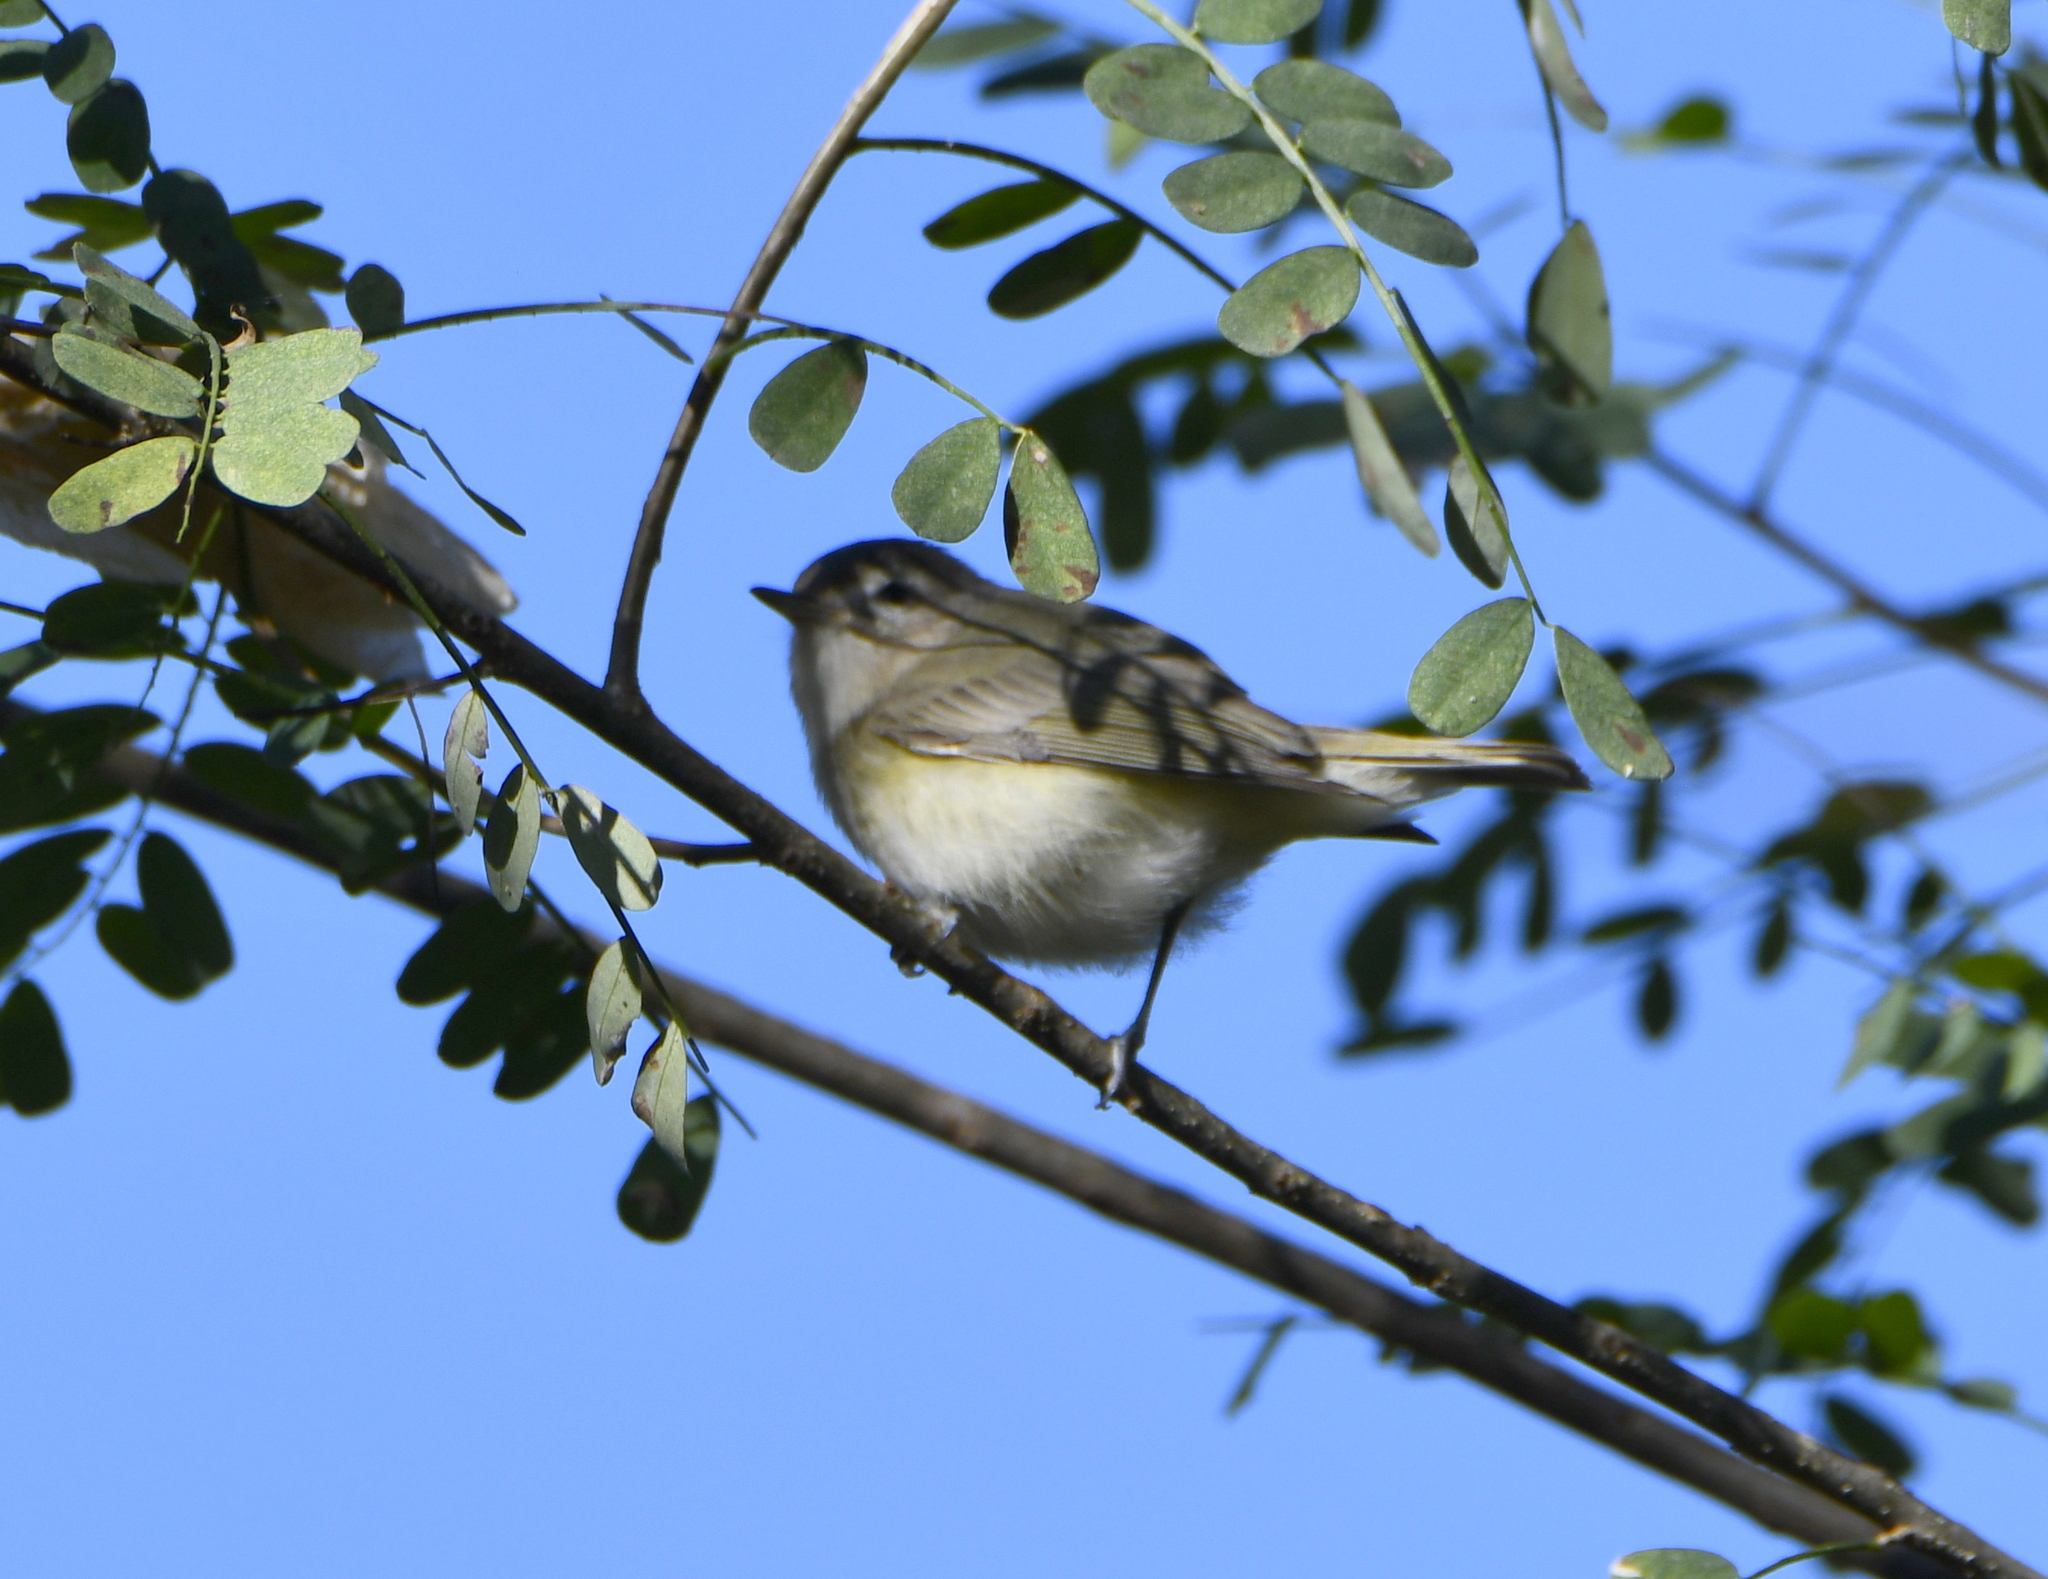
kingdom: Animalia
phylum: Chordata
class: Aves
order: Passeriformes
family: Vireonidae
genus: Vireo
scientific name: Vireo gilvus
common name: Warbling vireo
